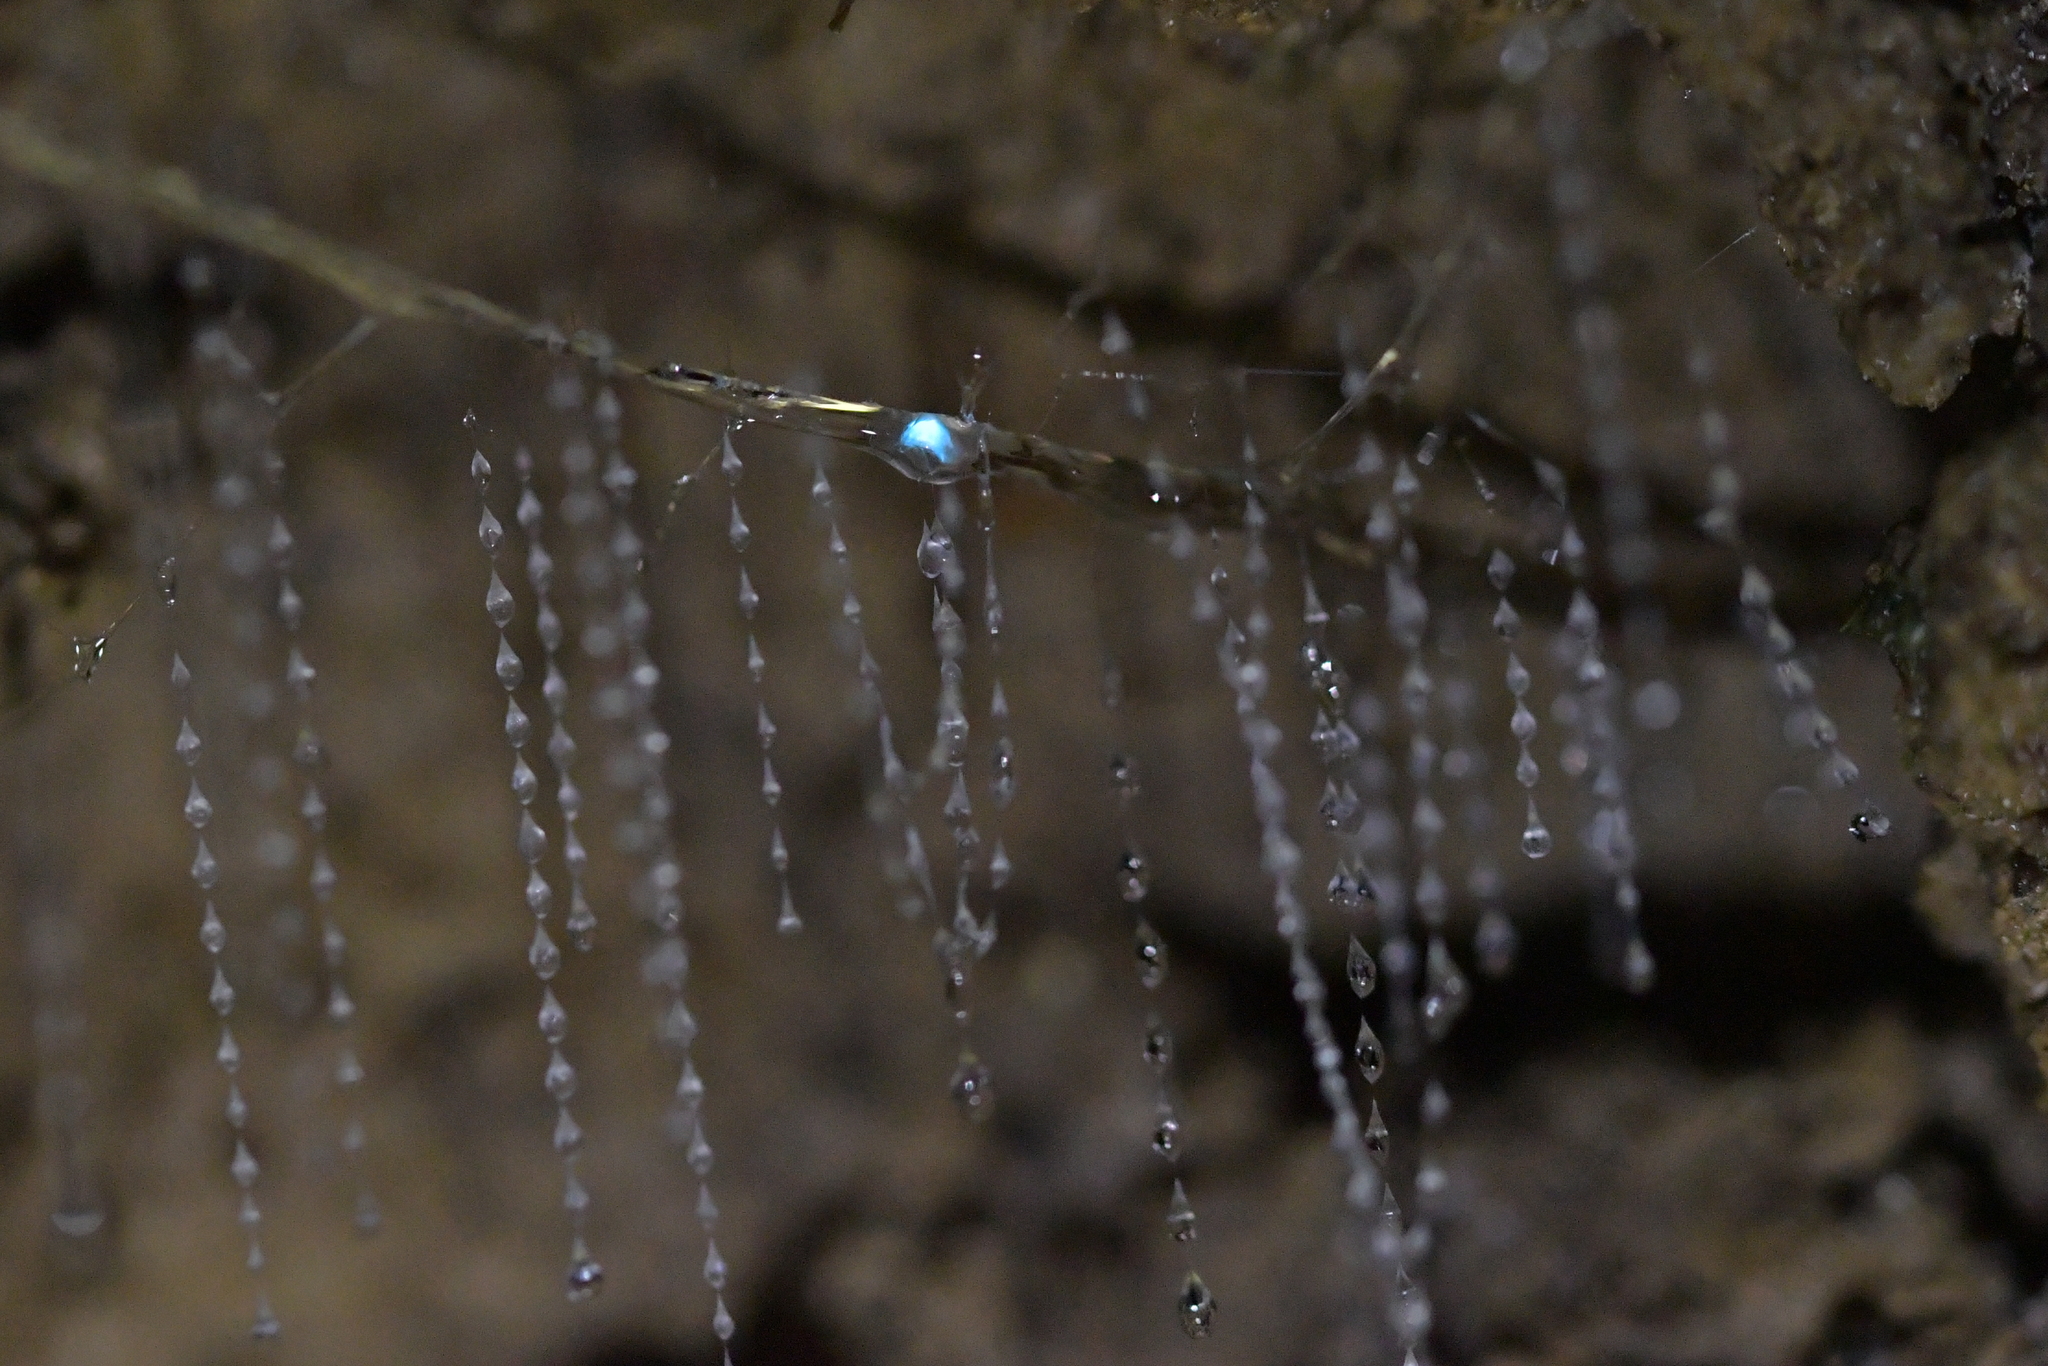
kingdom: Animalia
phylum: Arthropoda
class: Insecta
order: Diptera
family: Keroplatidae
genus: Arachnocampa
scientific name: Arachnocampa luminosa
